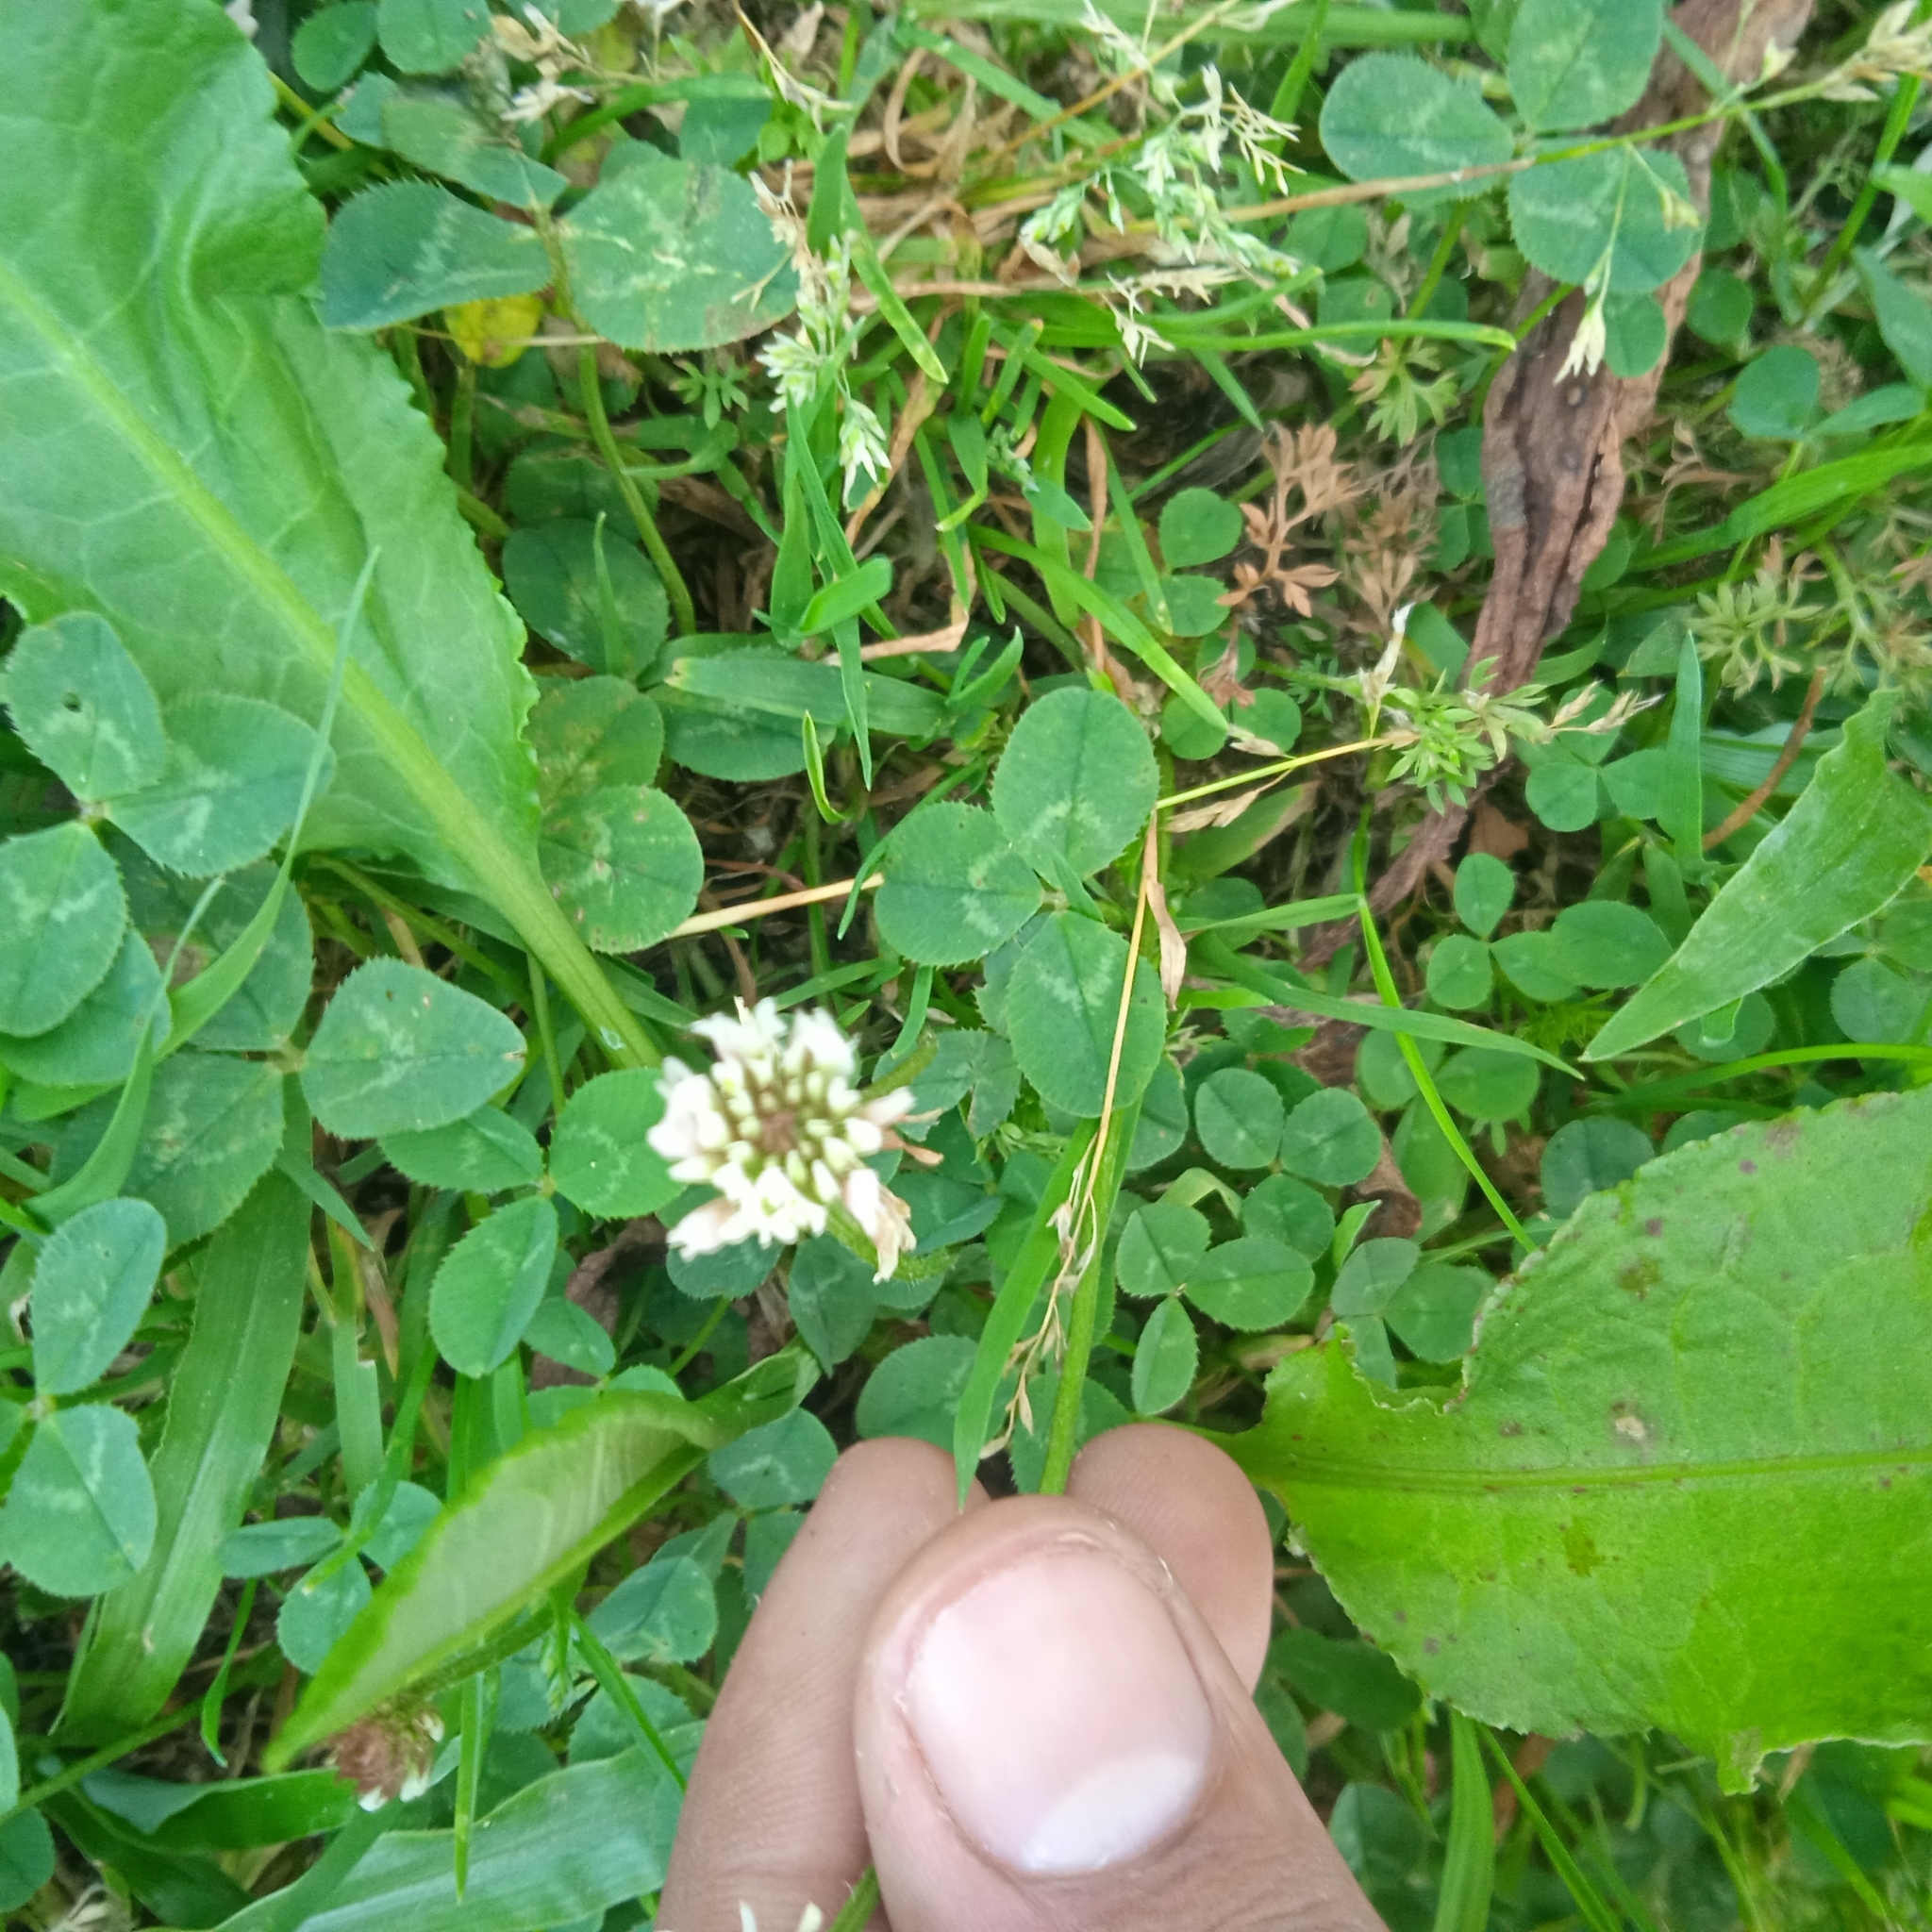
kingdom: Plantae
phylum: Tracheophyta
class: Magnoliopsida
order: Fabales
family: Fabaceae
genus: Trifolium
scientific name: Trifolium repens
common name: White clover
